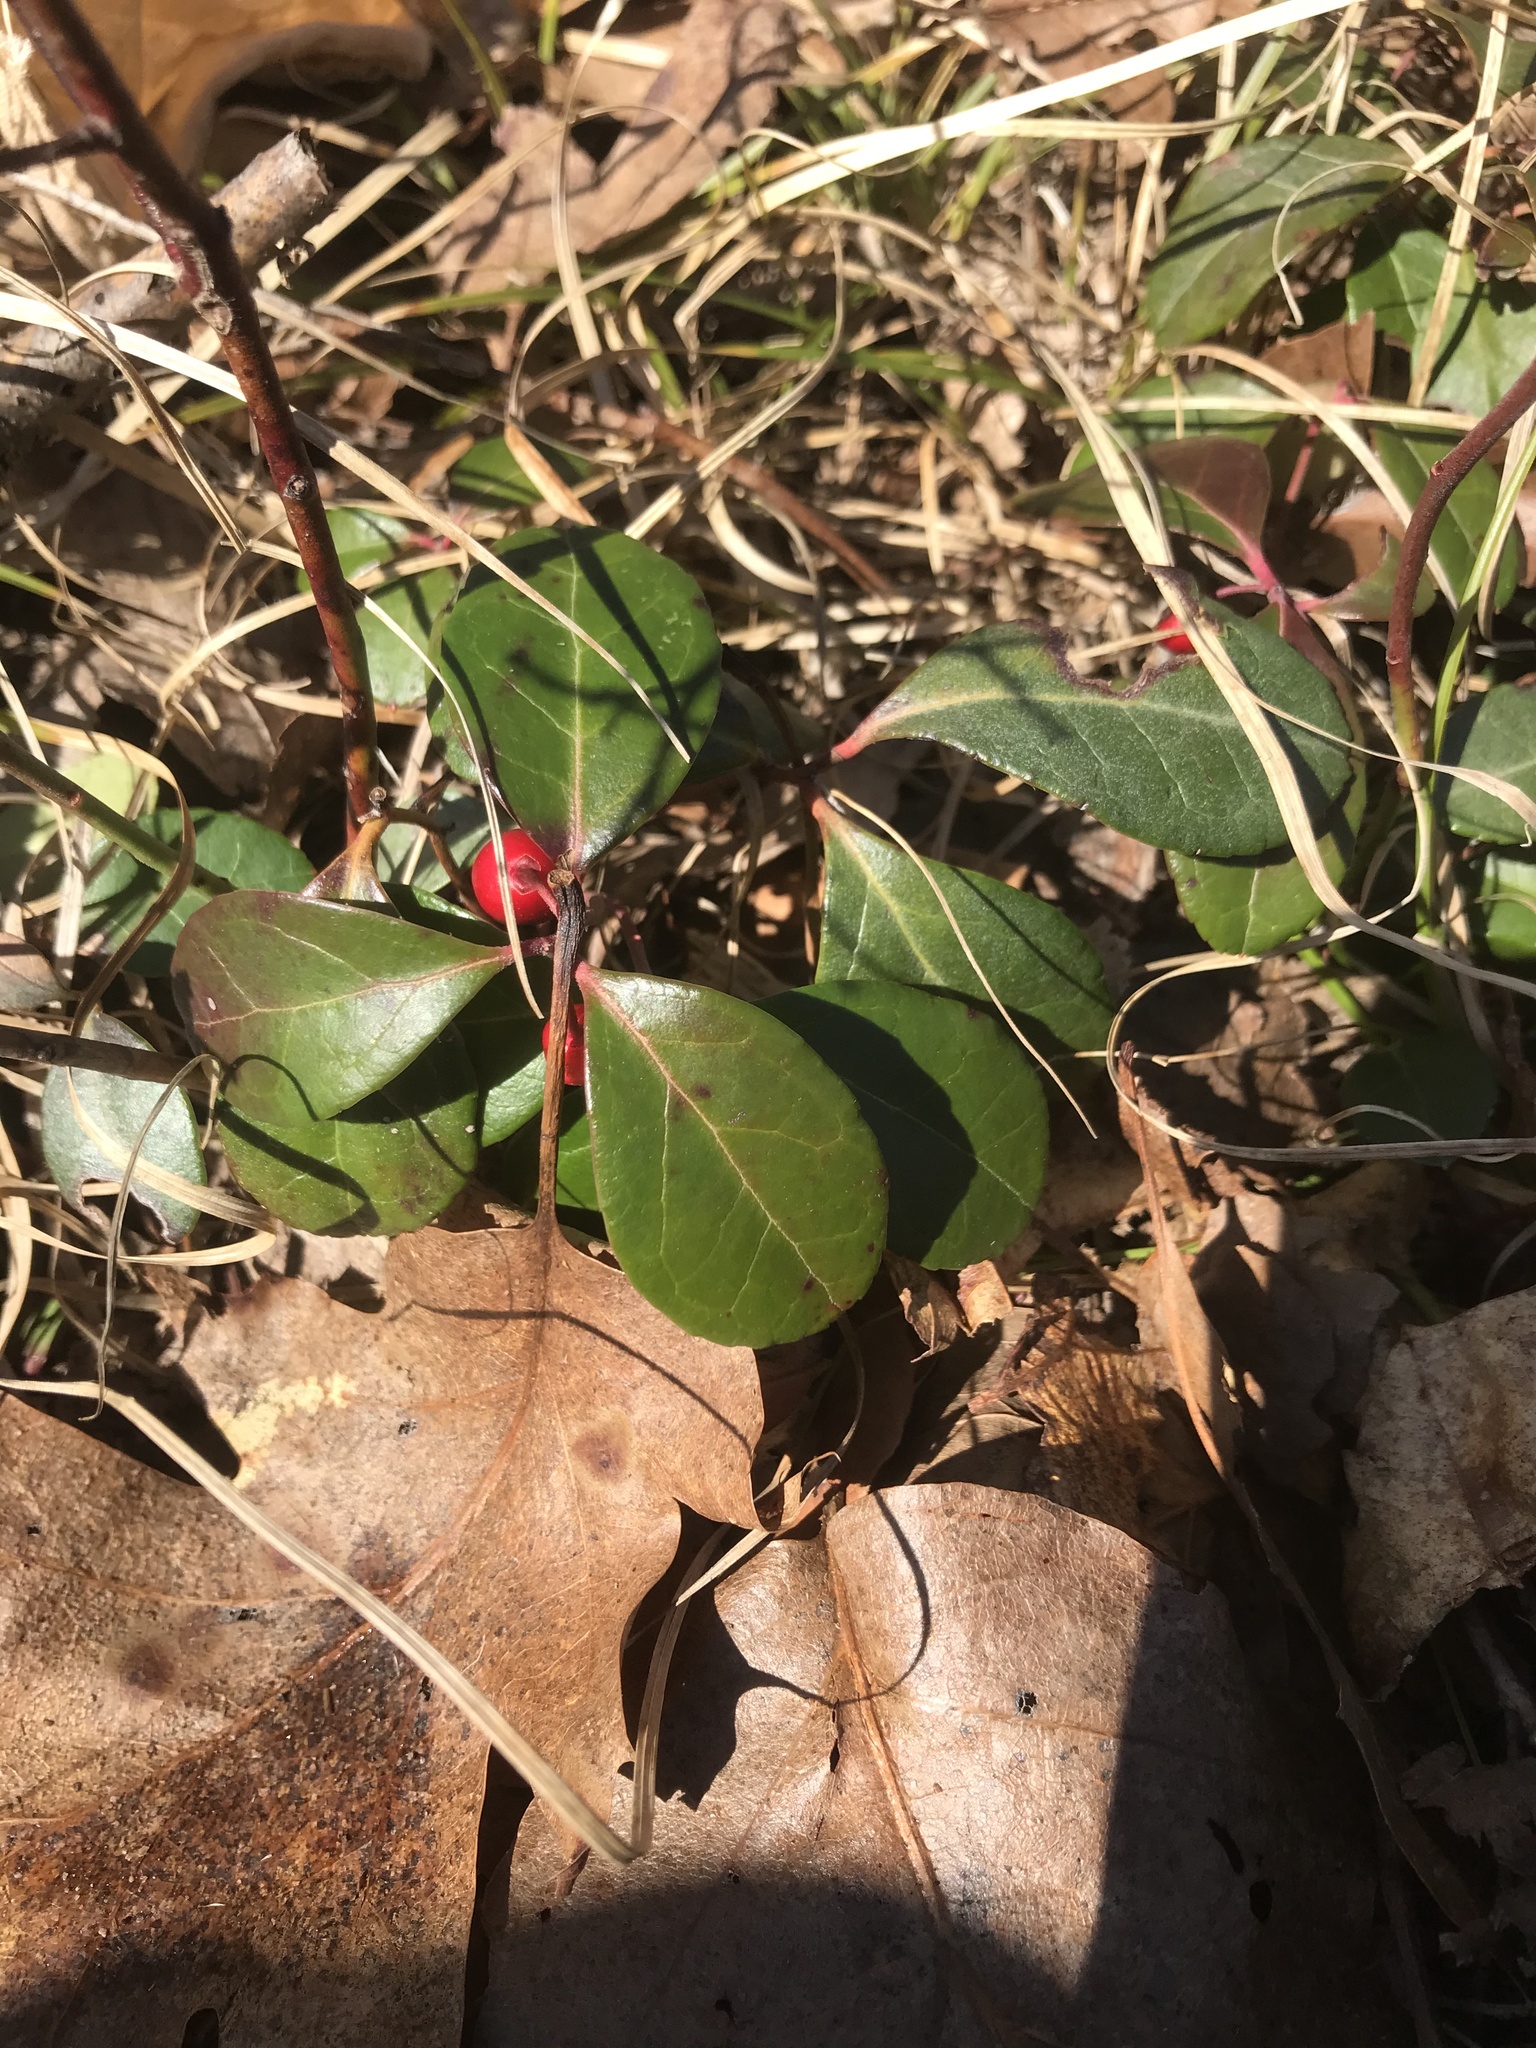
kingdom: Plantae
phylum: Tracheophyta
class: Magnoliopsida
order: Ericales
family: Ericaceae
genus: Gaultheria
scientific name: Gaultheria procumbens
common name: Checkerberry
